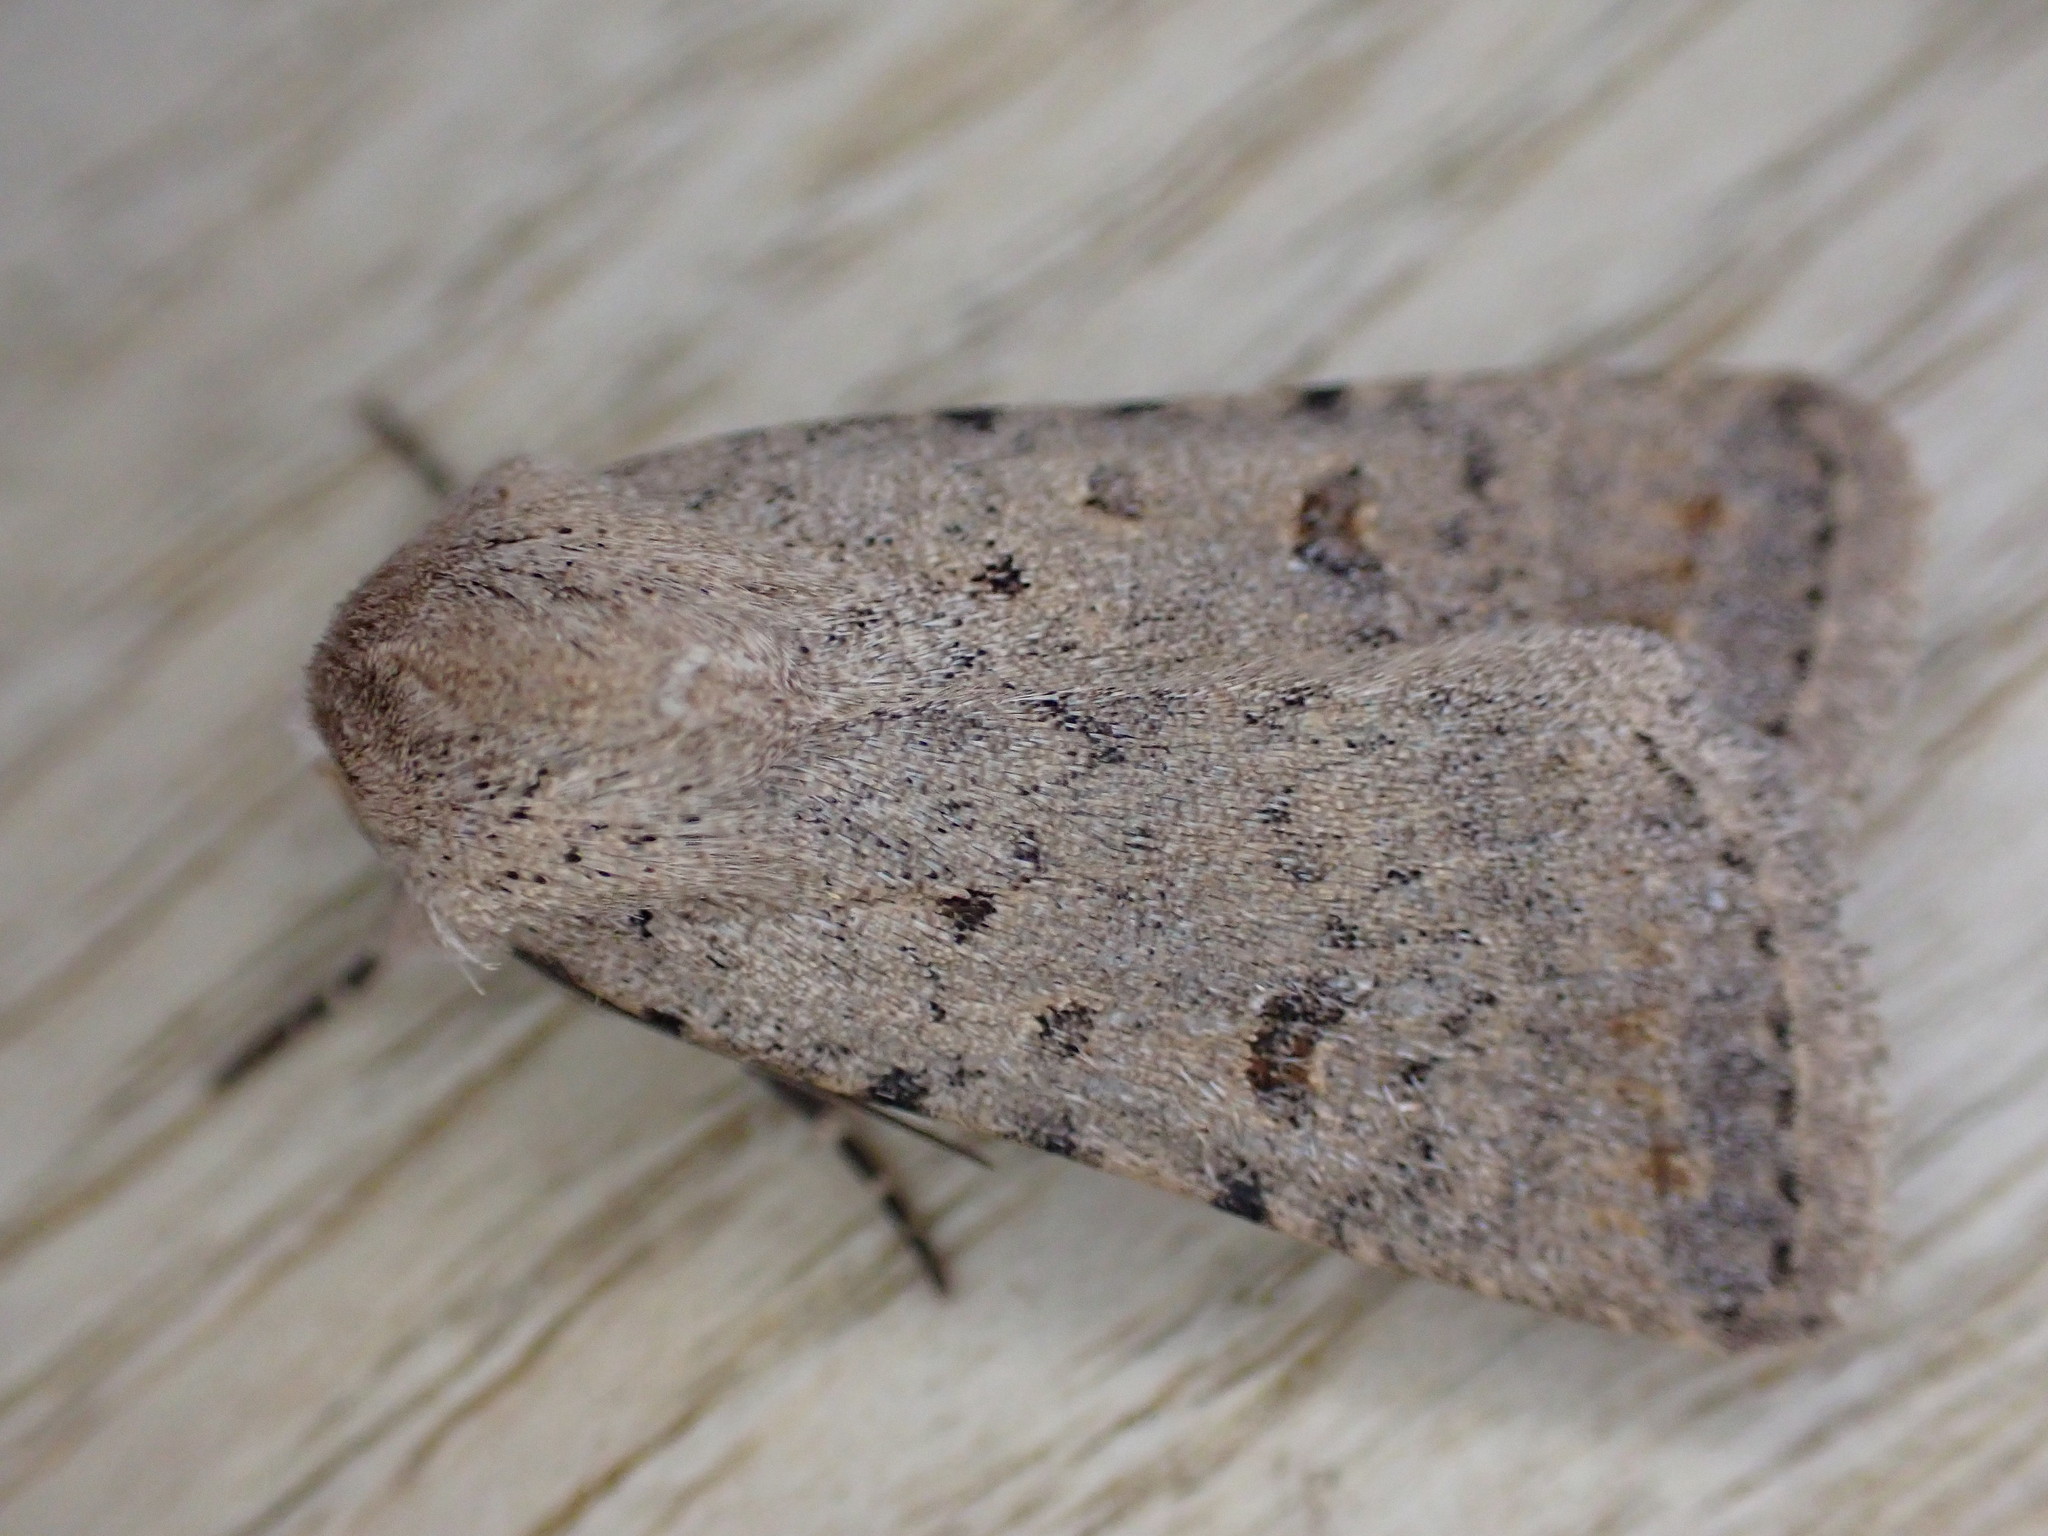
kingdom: Animalia
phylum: Arthropoda
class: Insecta
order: Lepidoptera
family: Noctuidae
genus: Caradrina
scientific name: Caradrina clavipalpis
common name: Pale mottled willow
